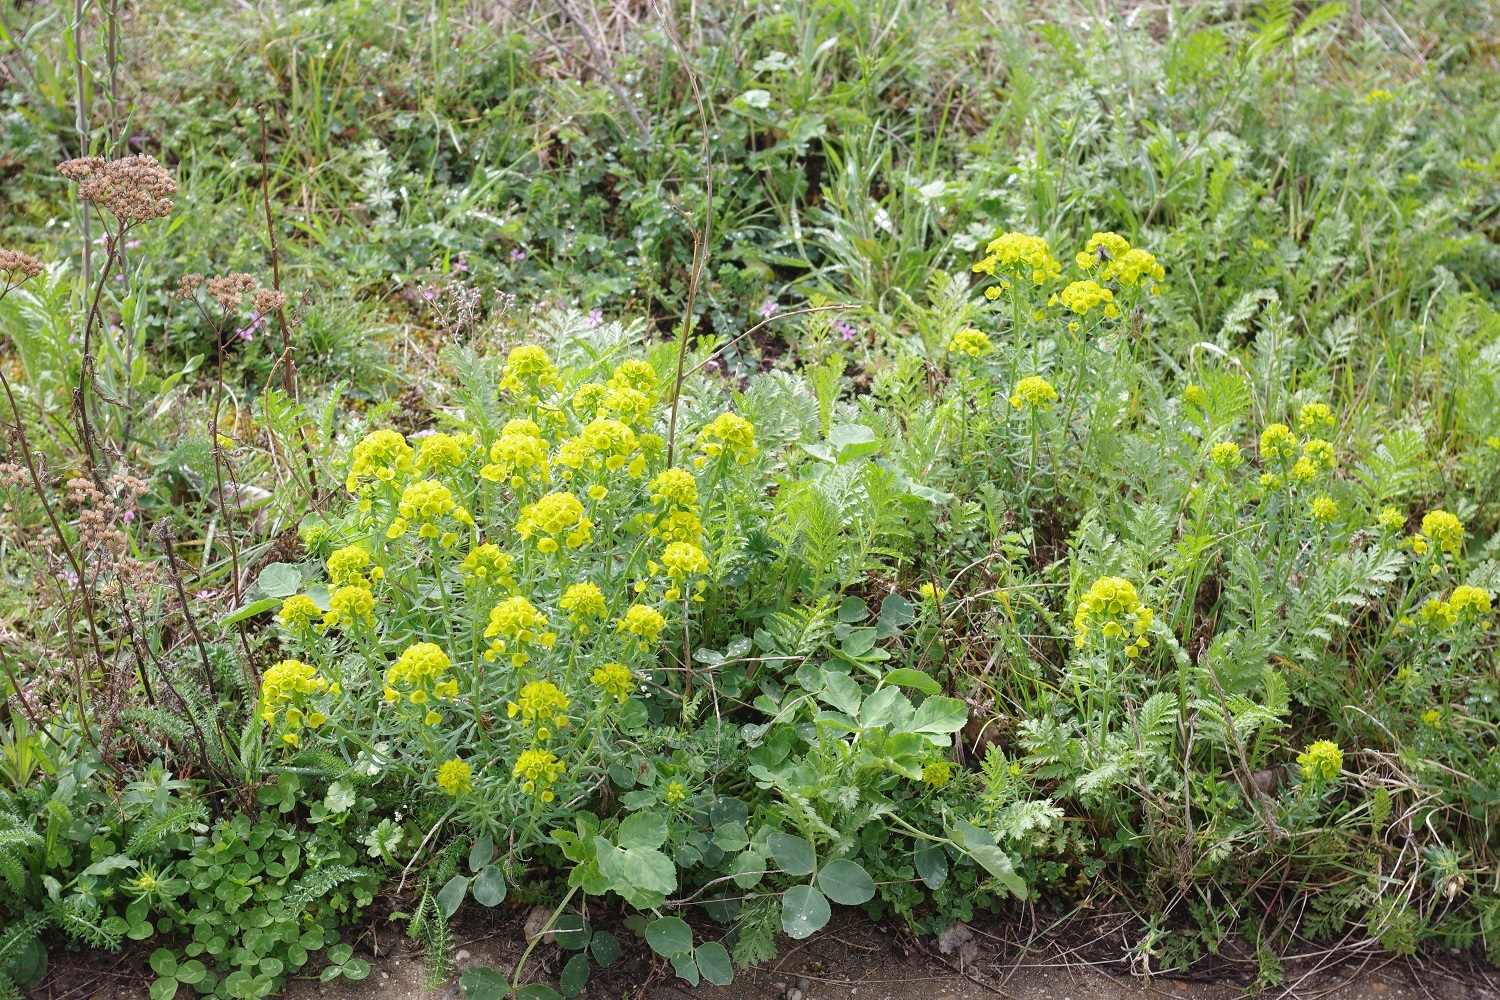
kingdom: Plantae
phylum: Tracheophyta
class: Magnoliopsida
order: Malpighiales
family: Euphorbiaceae
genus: Euphorbia
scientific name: Euphorbia cyparissias
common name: Cypress spurge
